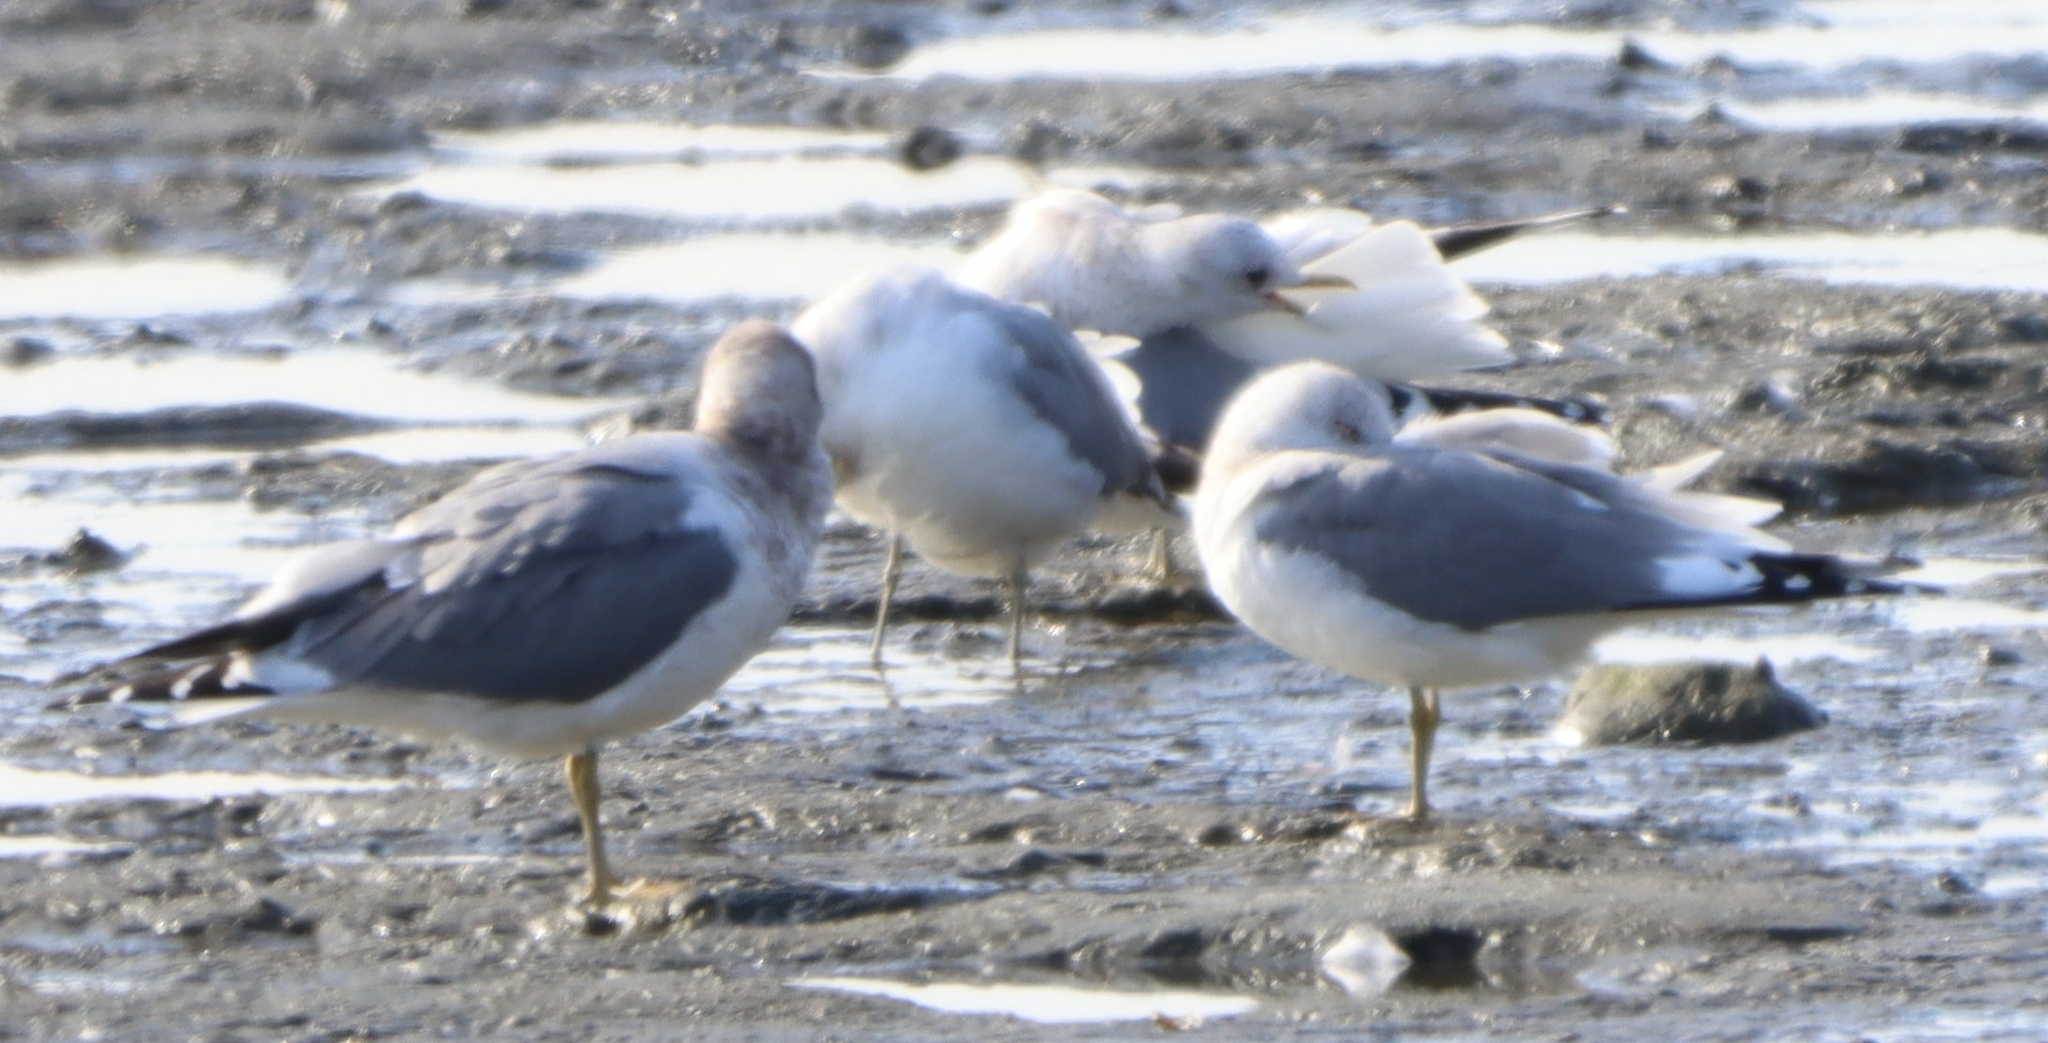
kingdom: Animalia
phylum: Chordata
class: Aves
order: Charadriiformes
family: Laridae
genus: Larus
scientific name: Larus brachyrhynchus
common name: Short-billed gull
